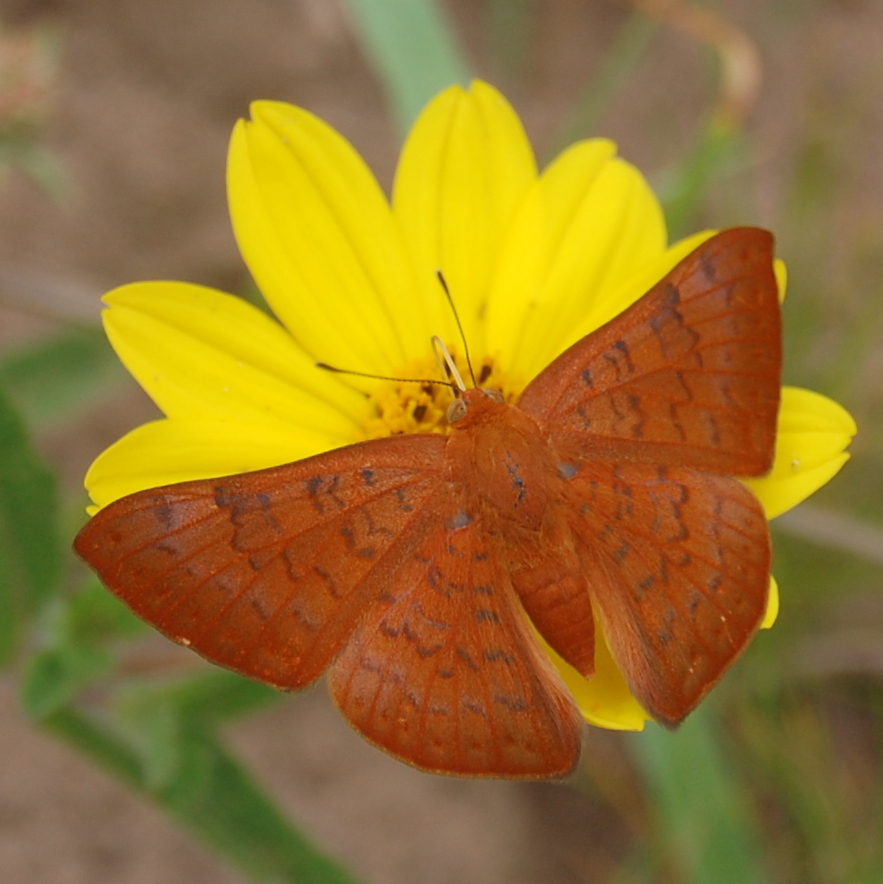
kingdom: Animalia
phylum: Arthropoda
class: Insecta
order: Lepidoptera
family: Lycaenidae
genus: Emesis
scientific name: Emesis russula
